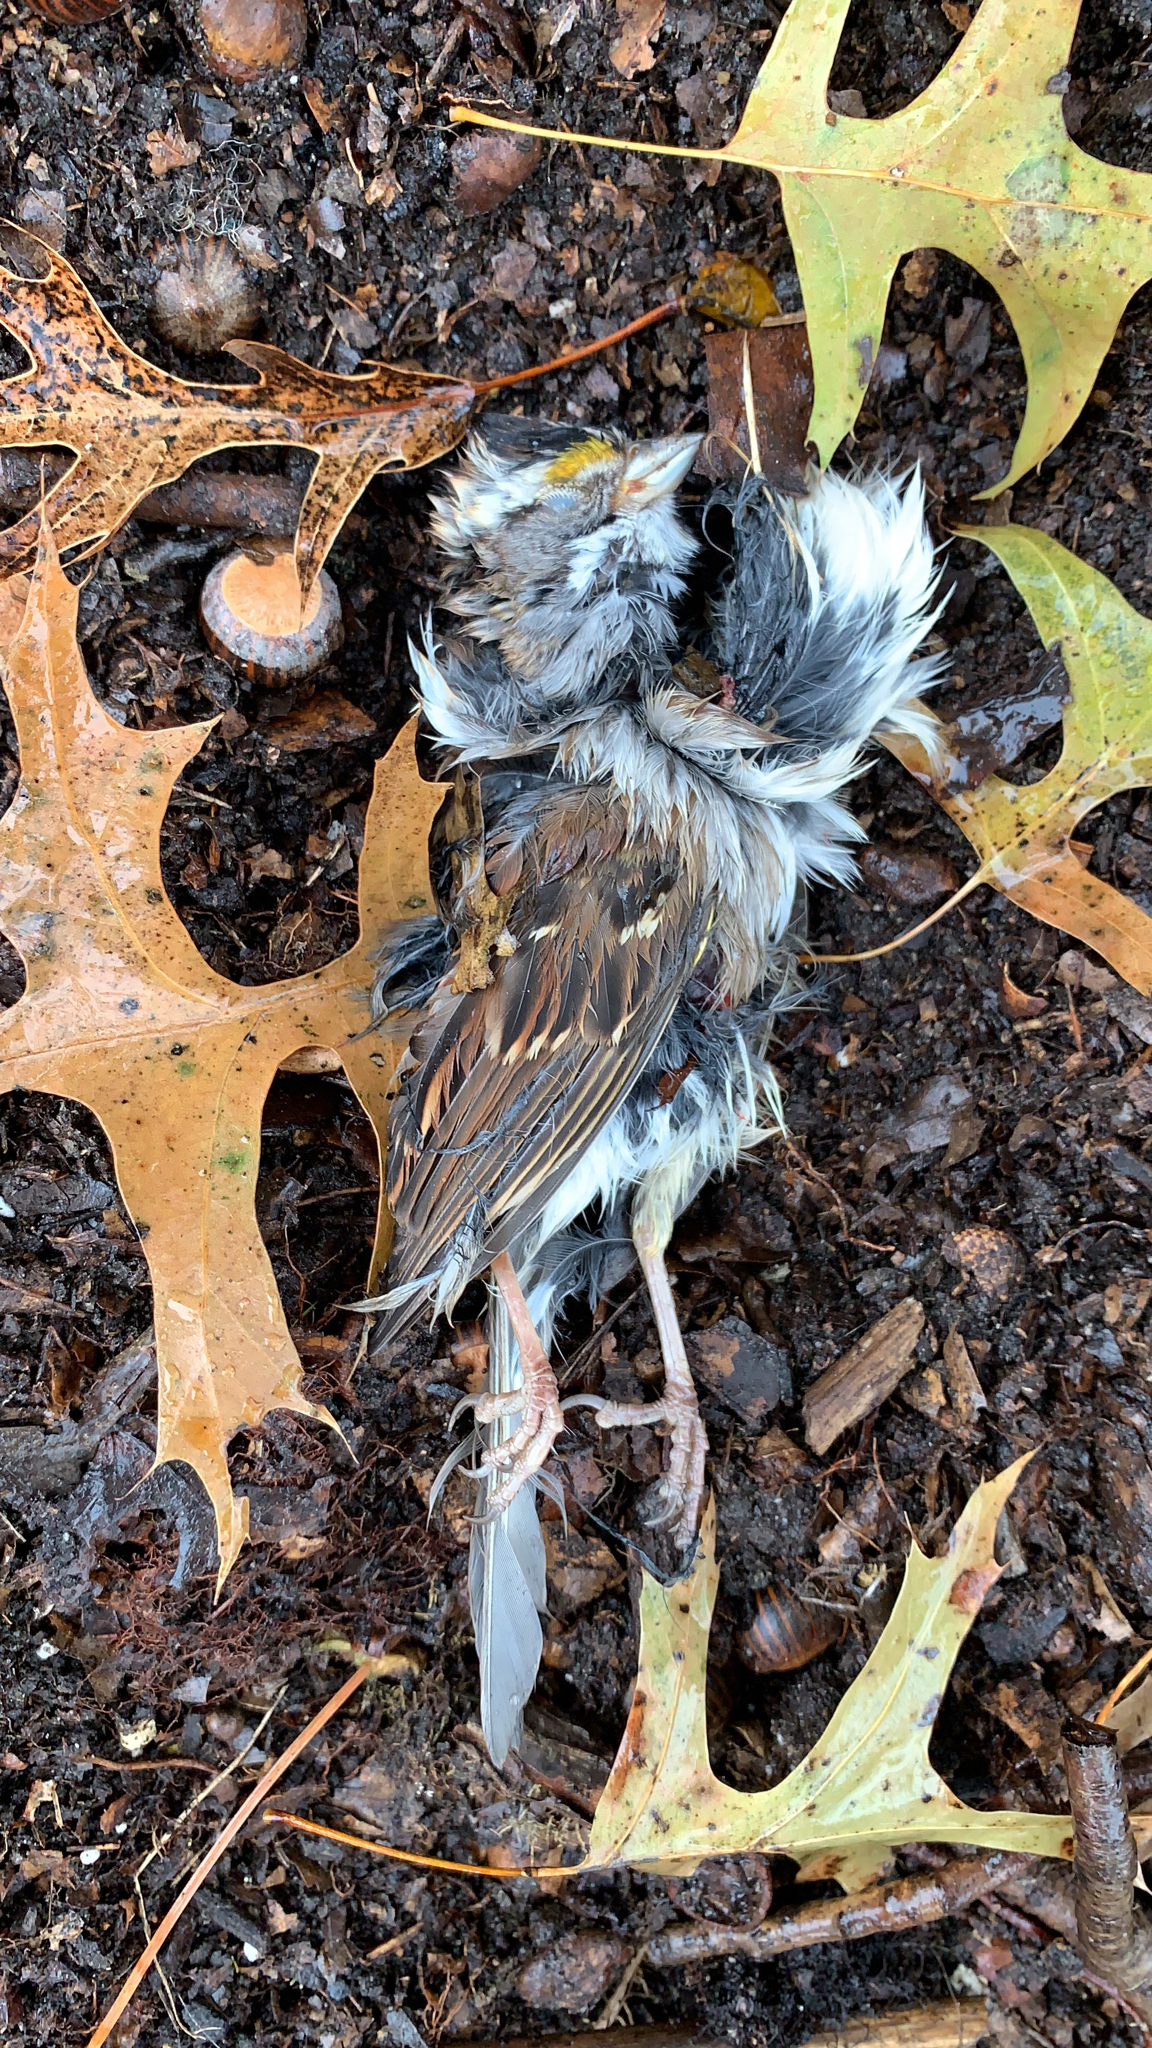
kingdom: Animalia
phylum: Chordata
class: Aves
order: Passeriformes
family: Passerellidae
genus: Zonotrichia
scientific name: Zonotrichia albicollis
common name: White-throated sparrow
